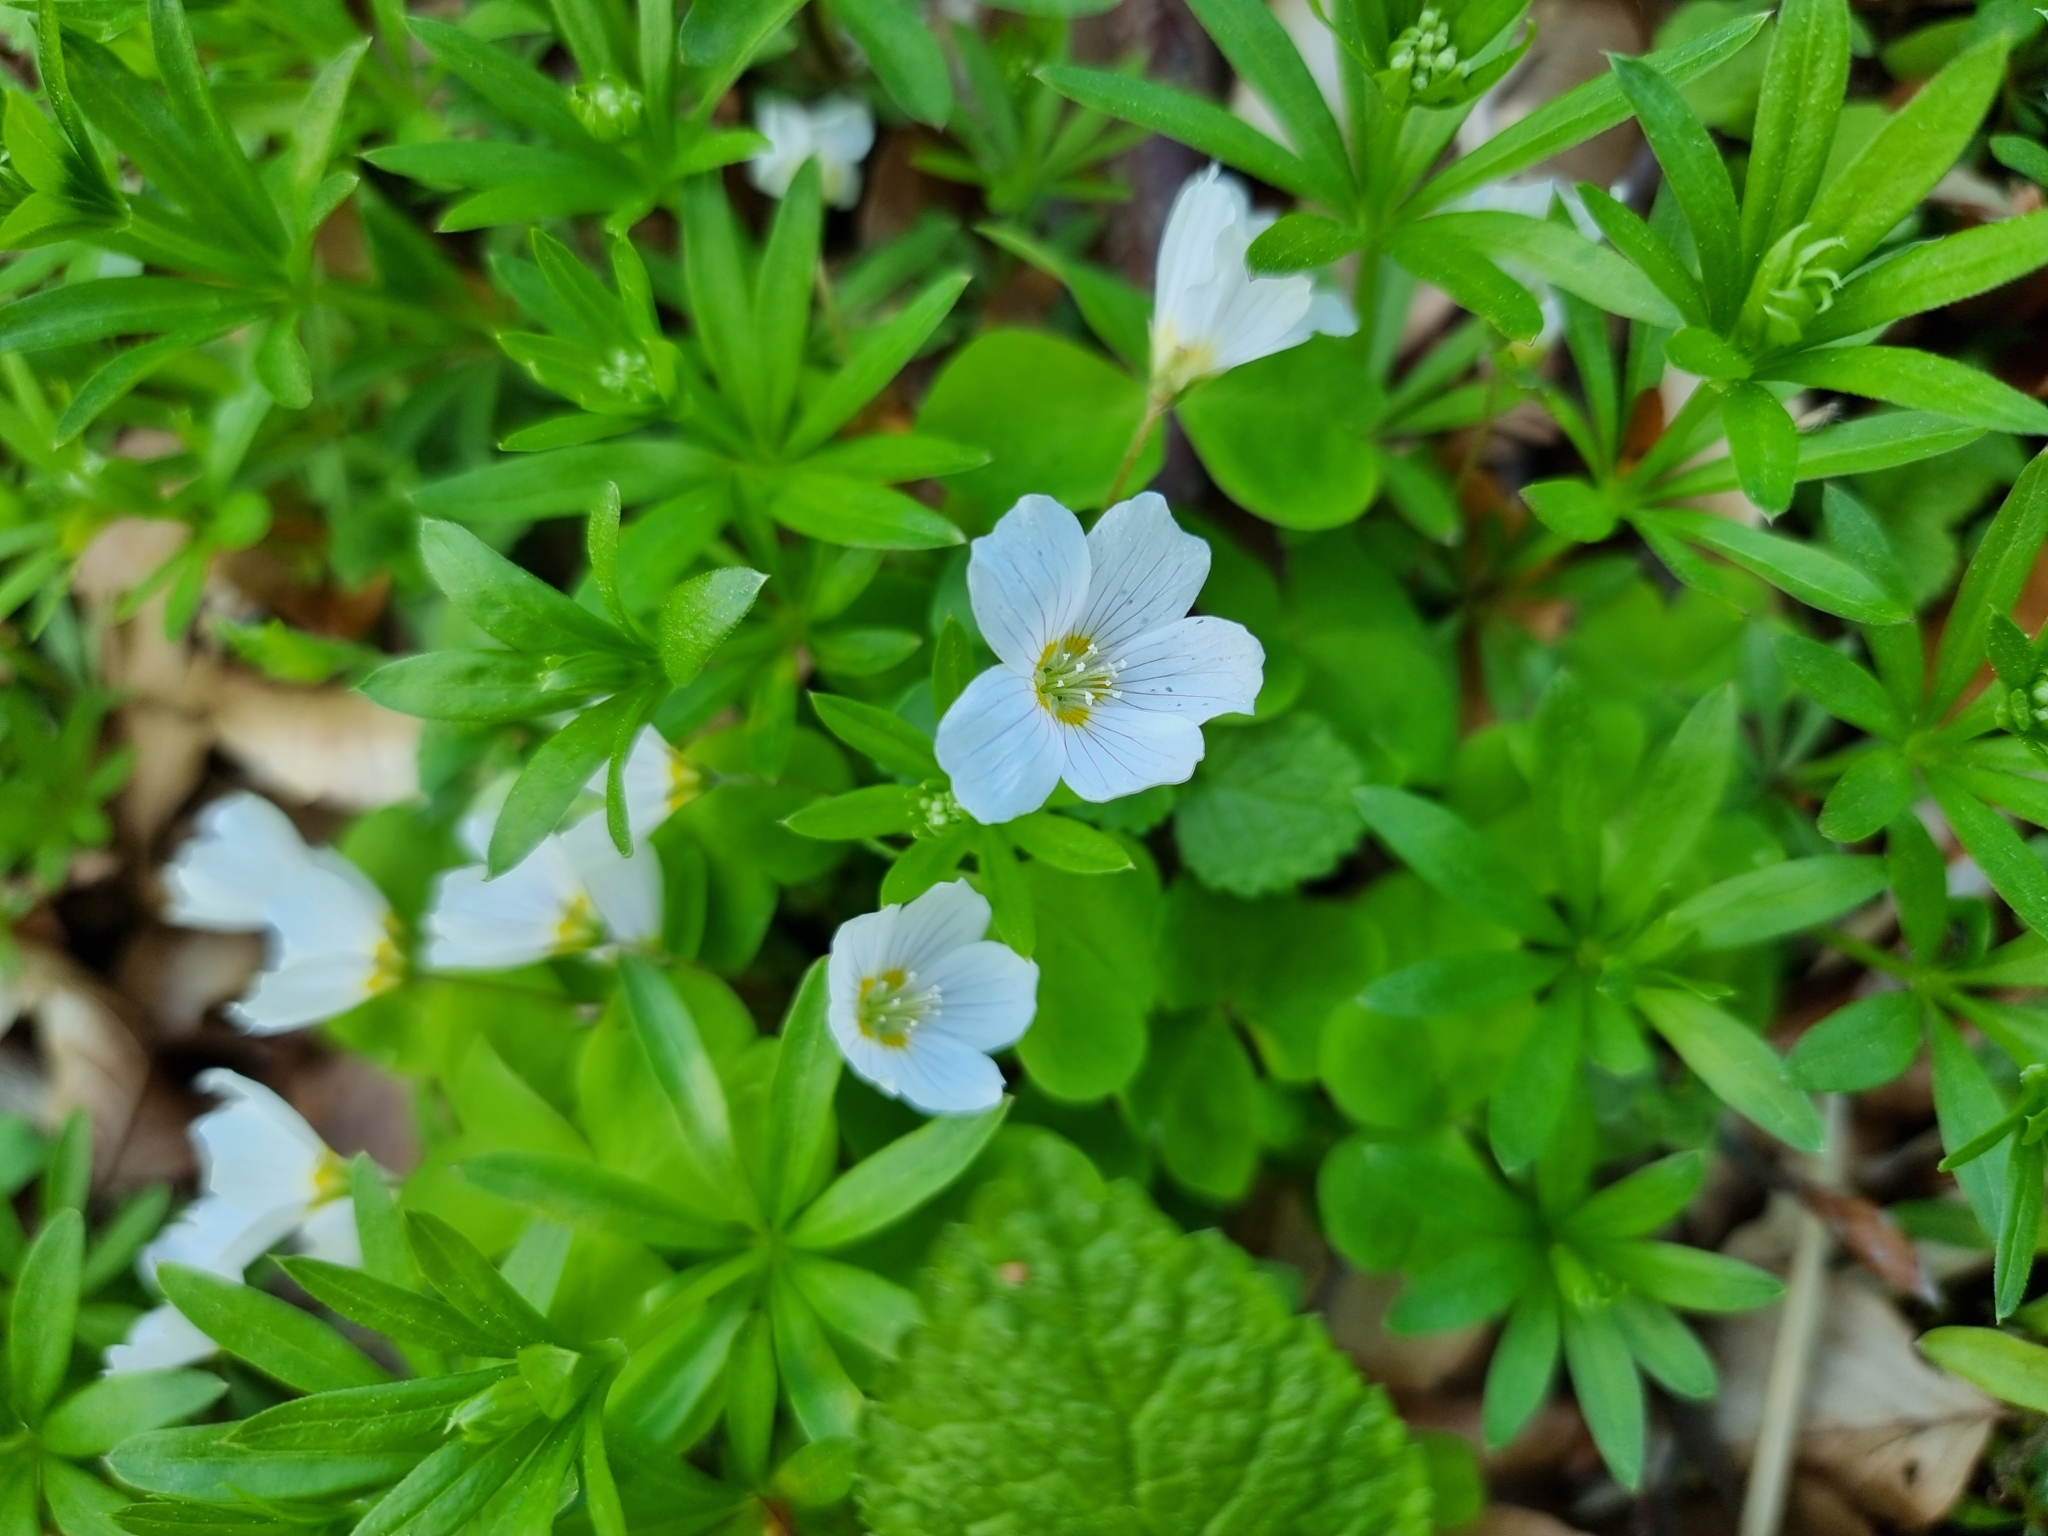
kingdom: Plantae
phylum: Tracheophyta
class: Magnoliopsida
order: Oxalidales
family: Oxalidaceae
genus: Oxalis
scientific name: Oxalis acetosella
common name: Wood-sorrel
